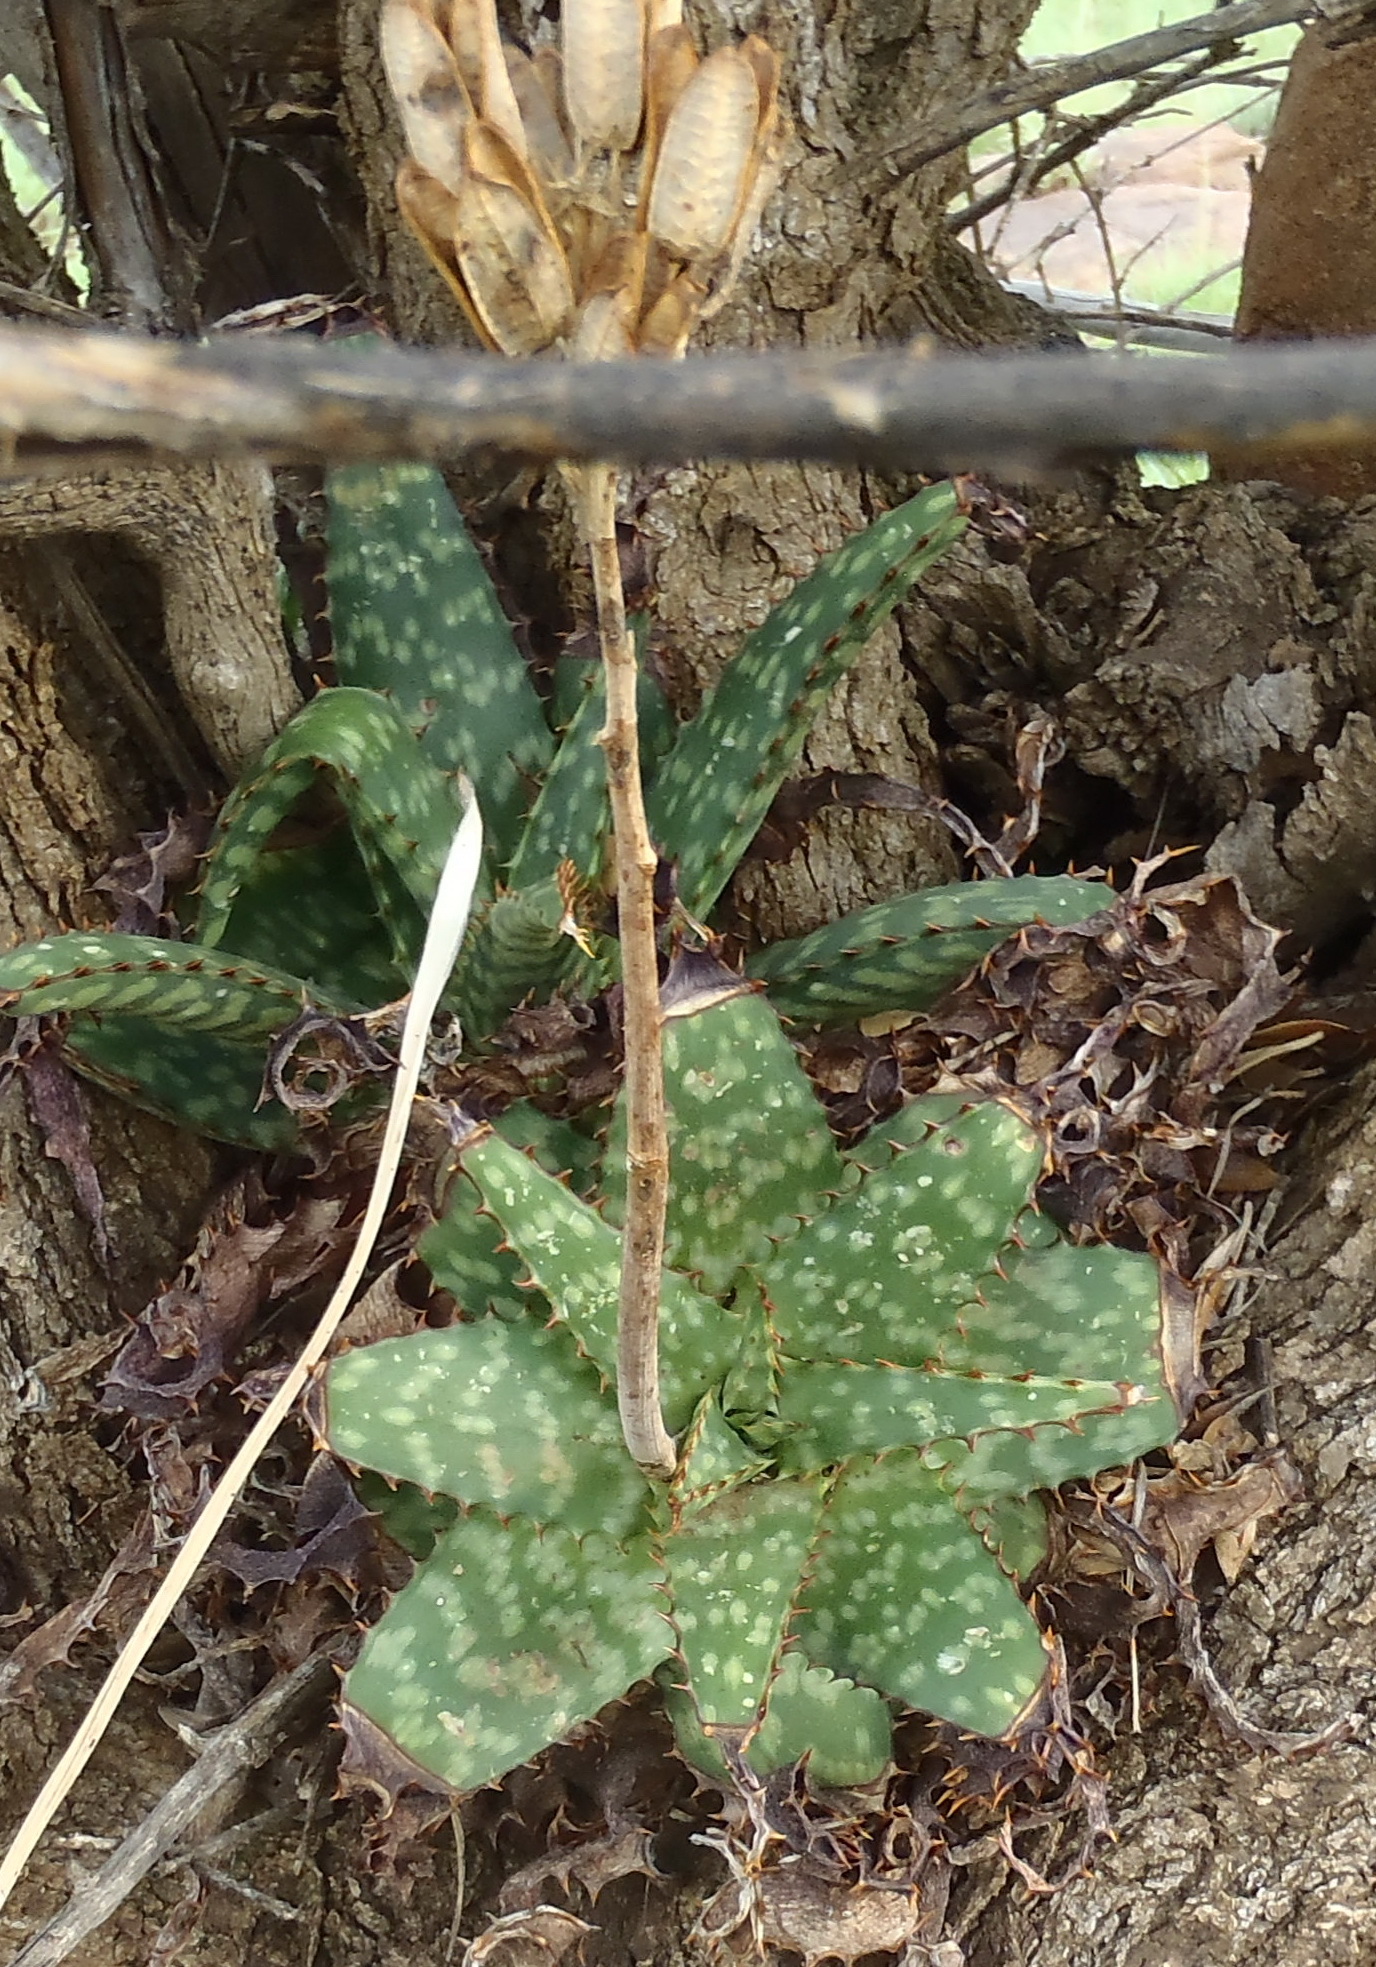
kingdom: Plantae
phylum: Tracheophyta
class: Liliopsida
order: Asparagales
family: Asphodelaceae
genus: Aloe
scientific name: Aloe grandidentata
